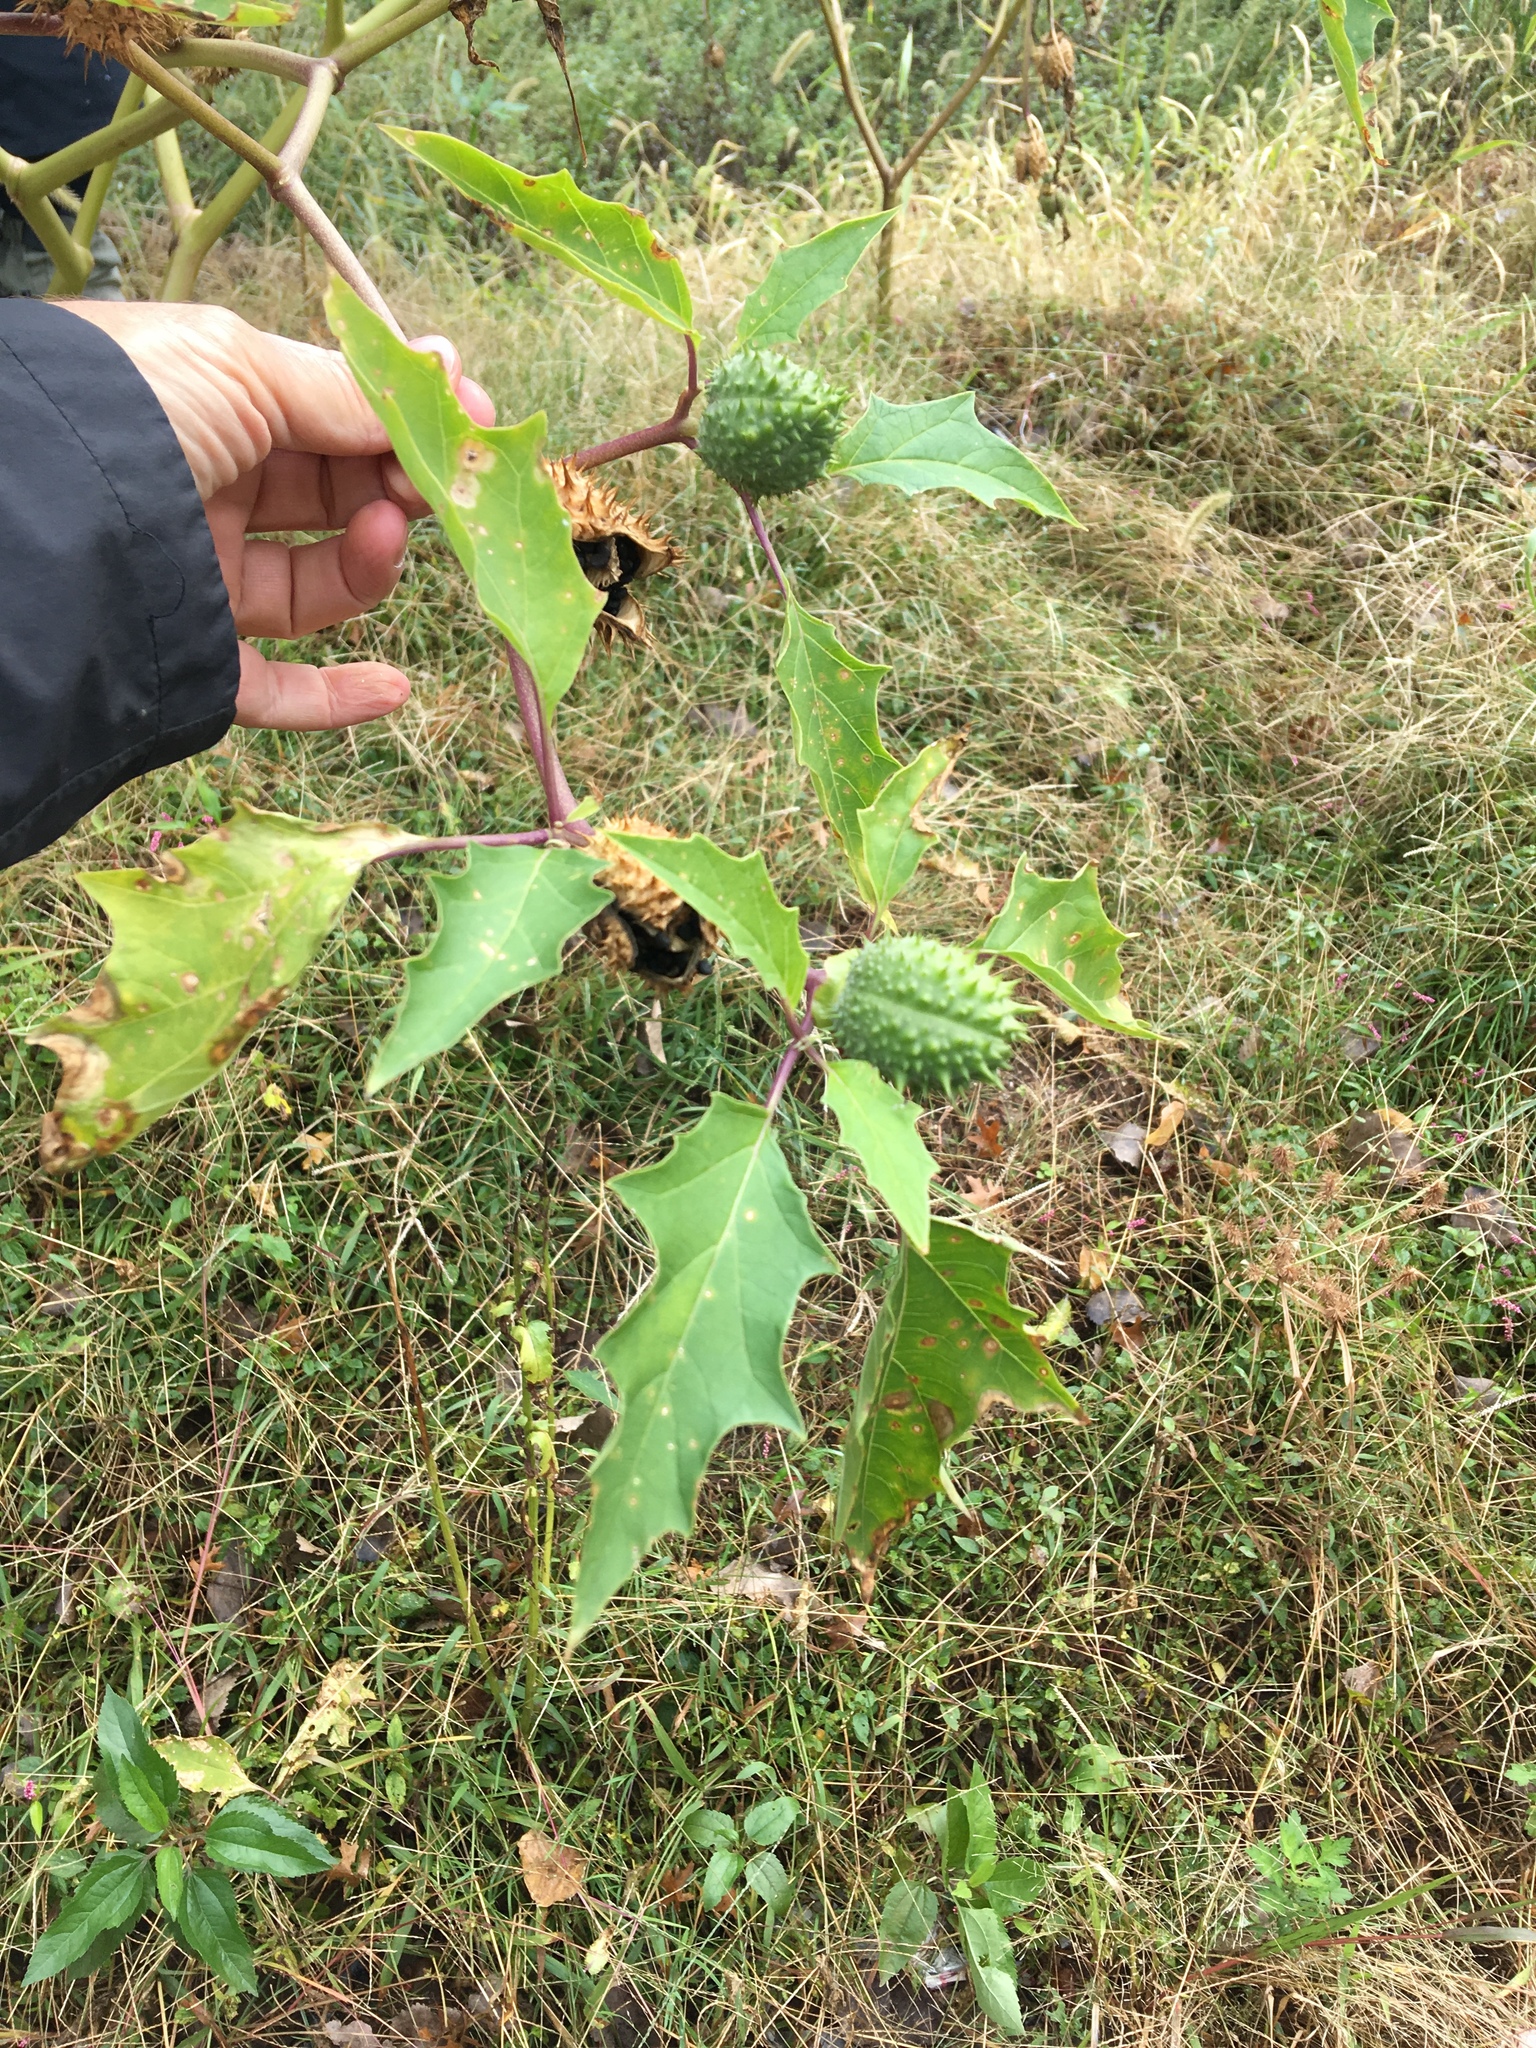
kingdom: Plantae
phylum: Tracheophyta
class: Magnoliopsida
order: Solanales
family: Solanaceae
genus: Datura
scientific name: Datura stramonium
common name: Thorn-apple
